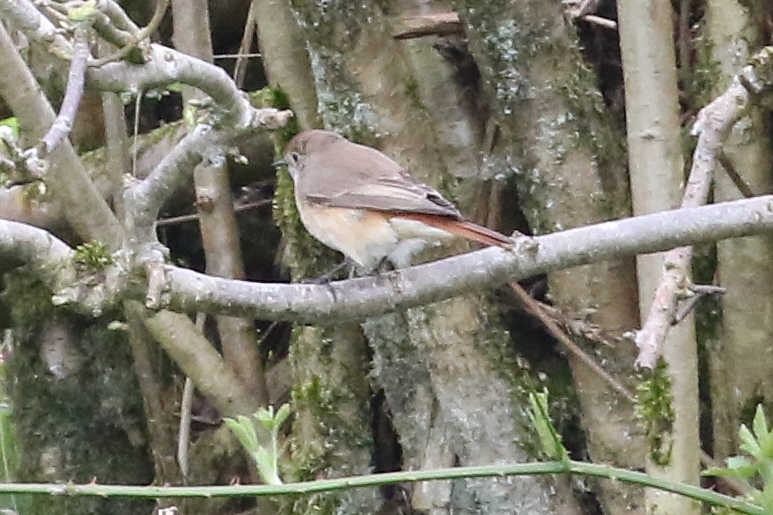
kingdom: Animalia
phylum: Chordata
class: Aves
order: Passeriformes
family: Muscicapidae
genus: Phoenicurus
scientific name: Phoenicurus phoenicurus
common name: Common redstart
